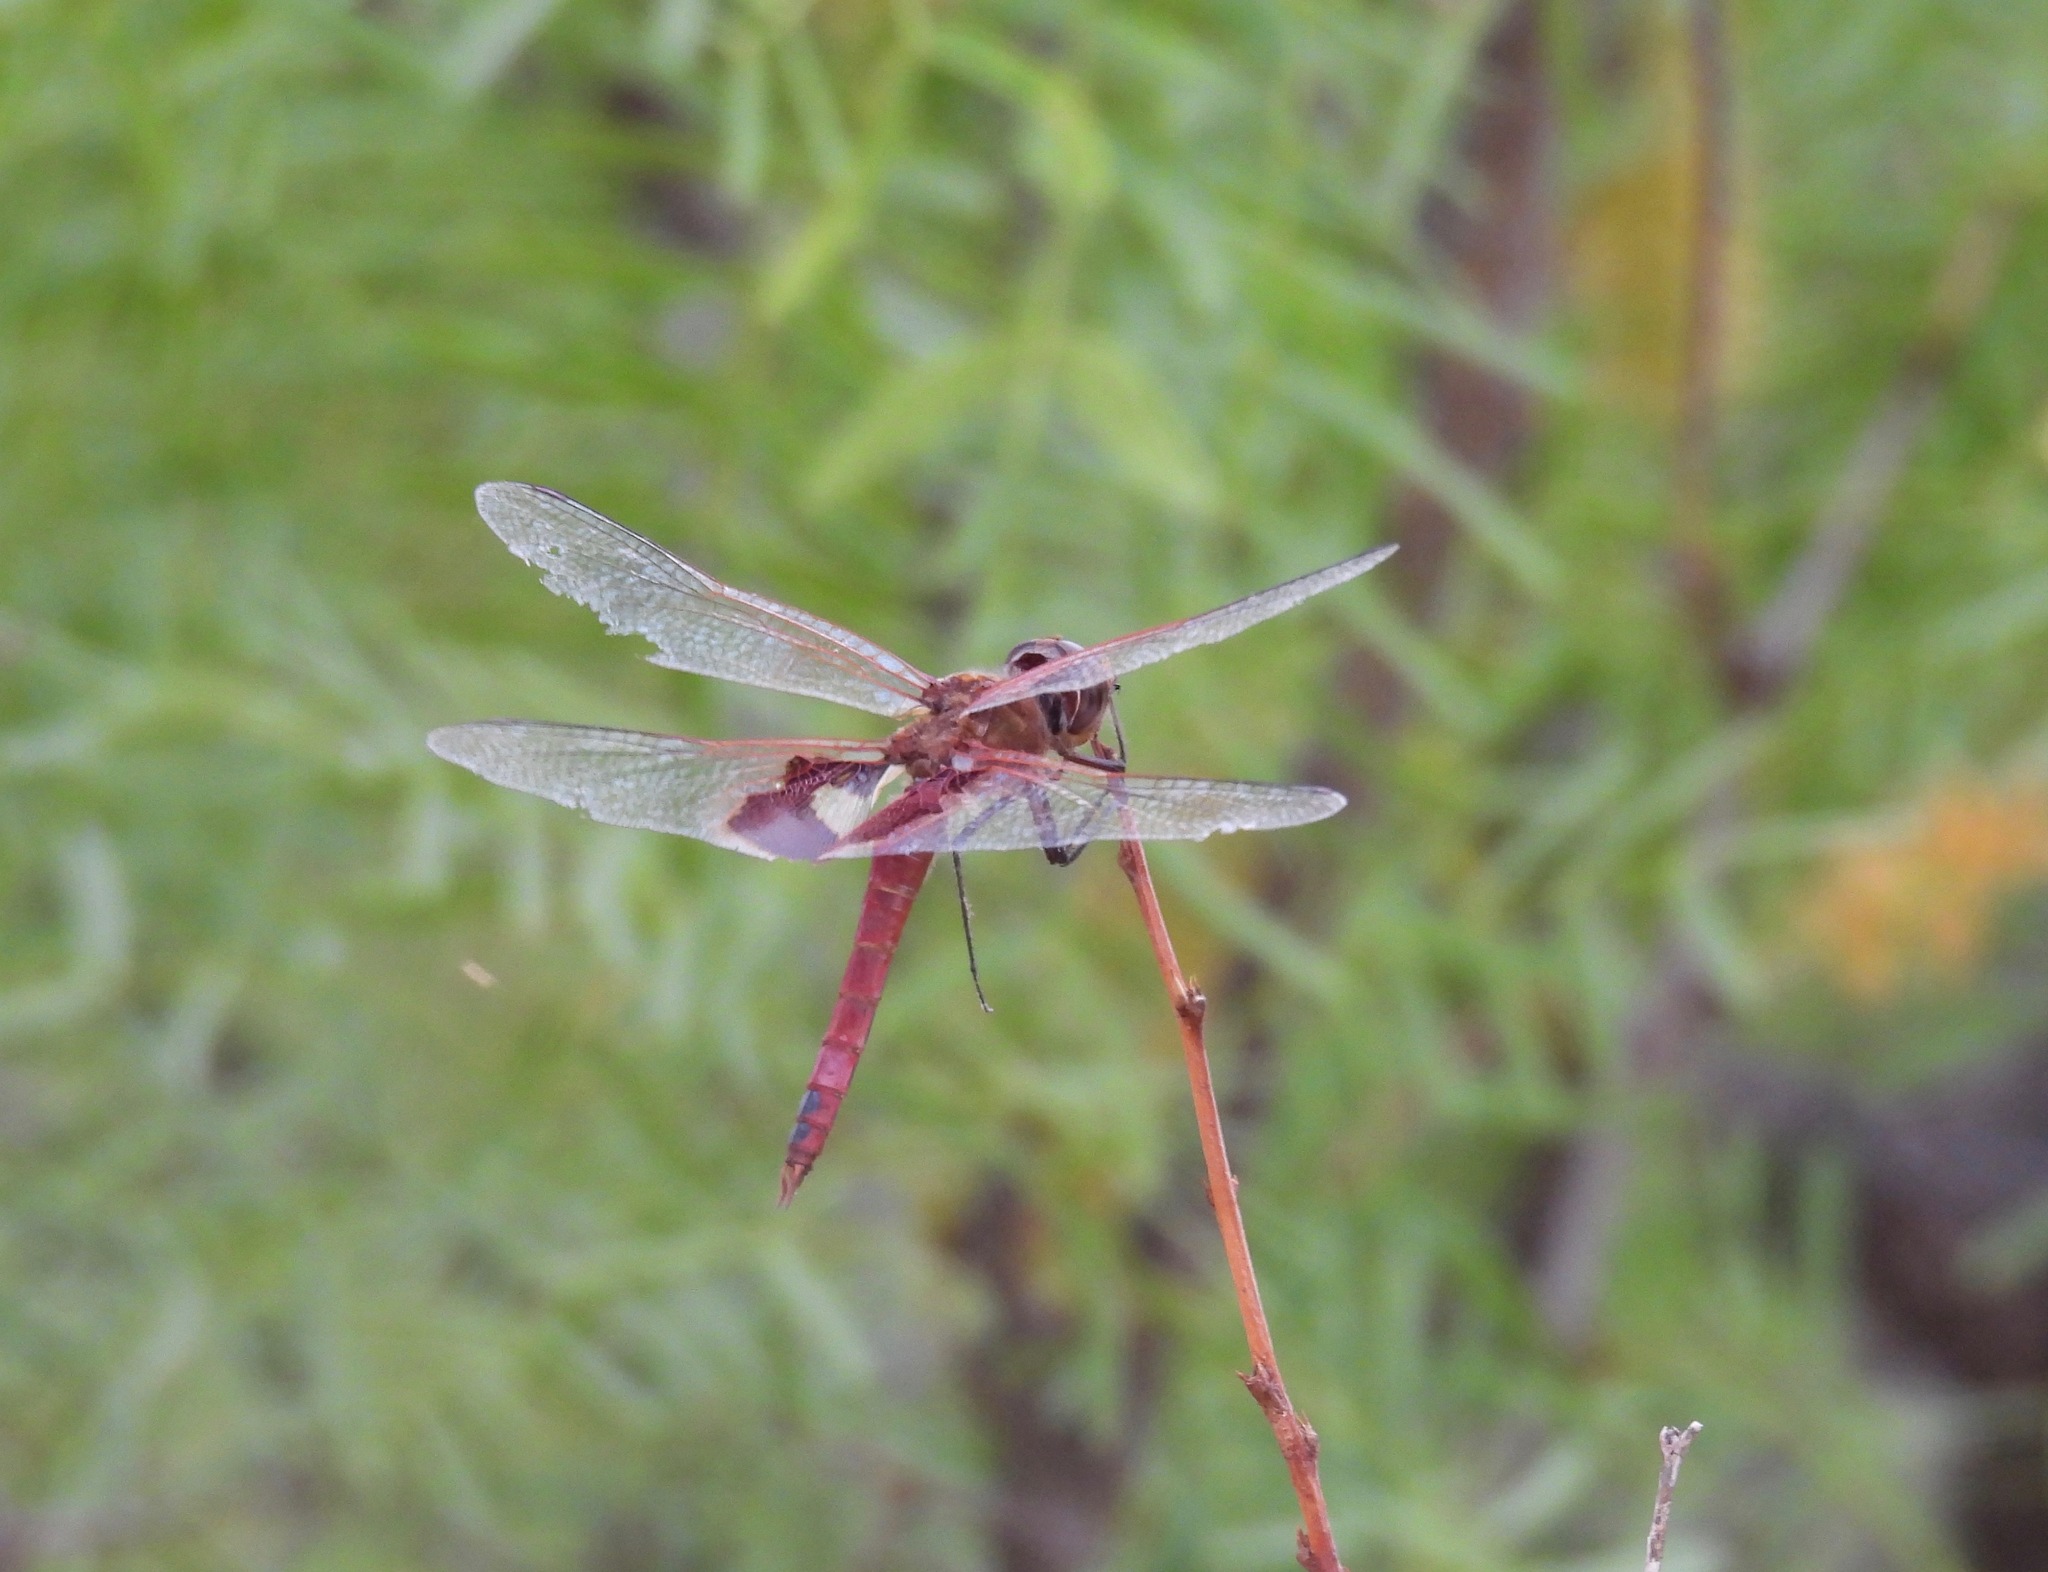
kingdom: Animalia
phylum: Arthropoda
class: Insecta
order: Odonata
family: Libellulidae
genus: Tramea
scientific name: Tramea onusta
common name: Red saddlebags
